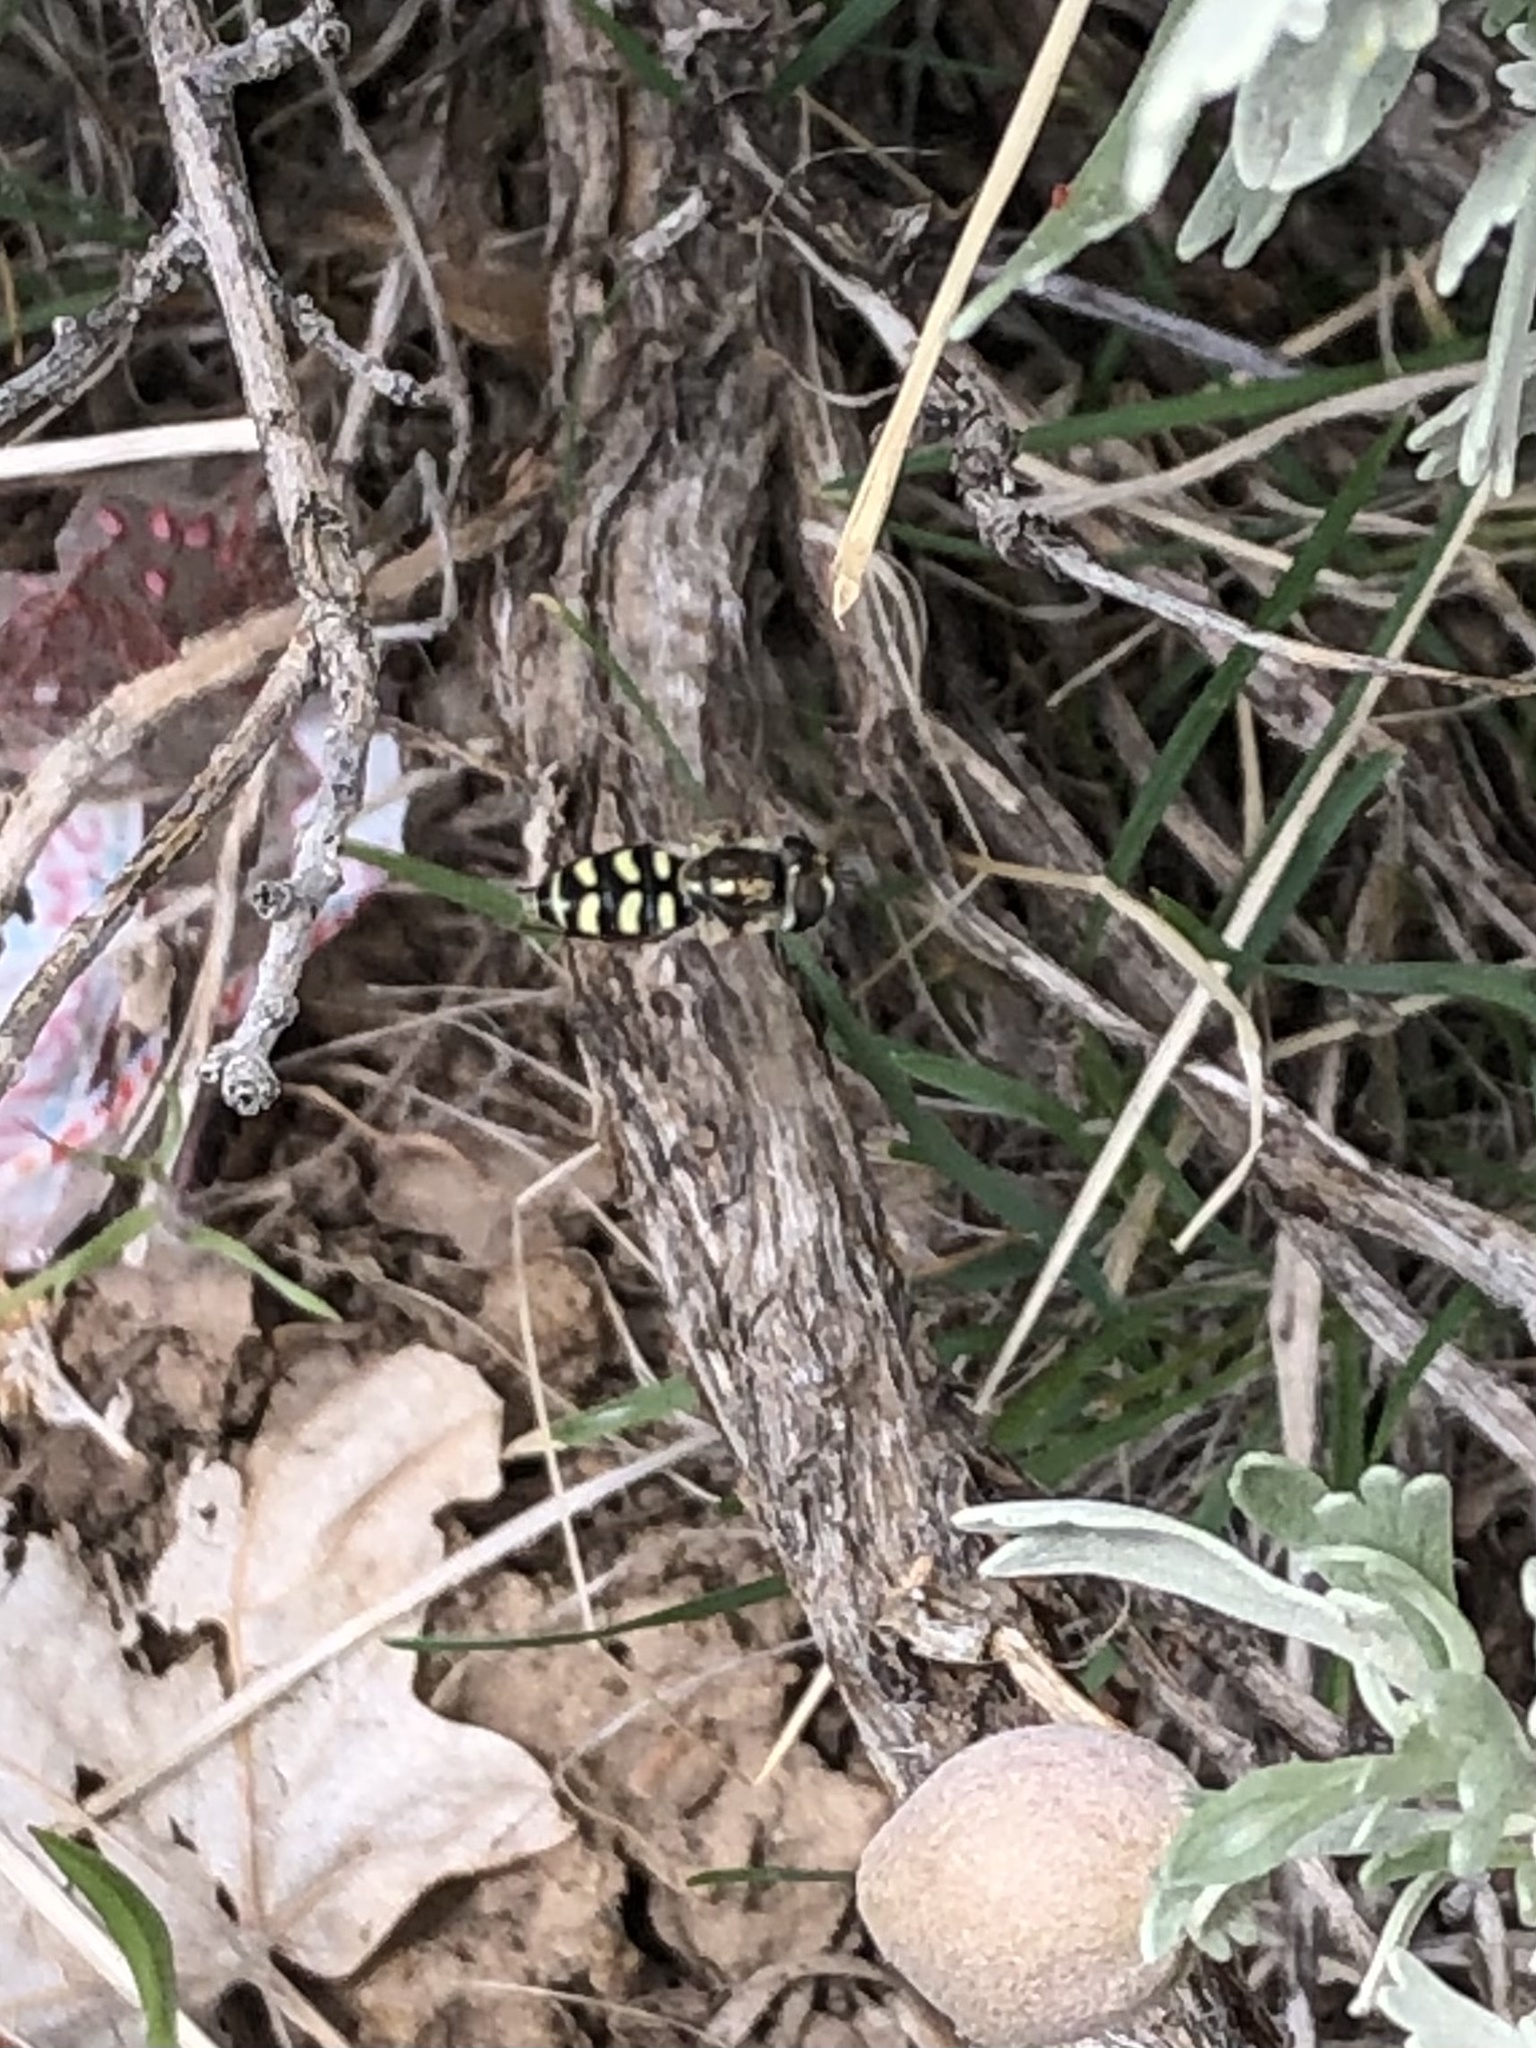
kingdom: Animalia
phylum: Arthropoda
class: Insecta
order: Diptera
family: Syrphidae
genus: Eupeodes
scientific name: Eupeodes volucris
